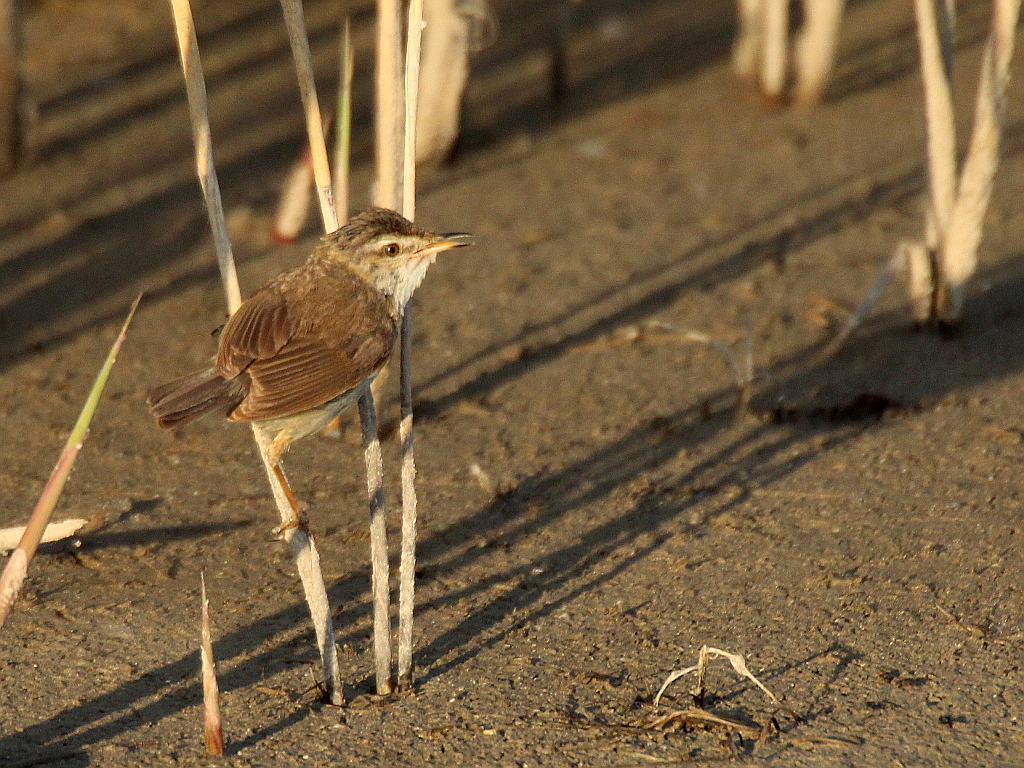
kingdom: Animalia
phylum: Chordata
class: Aves
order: Passeriformes
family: Acrocephalidae
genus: Acrocephalus
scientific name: Acrocephalus agricola
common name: Paddyfield warbler
